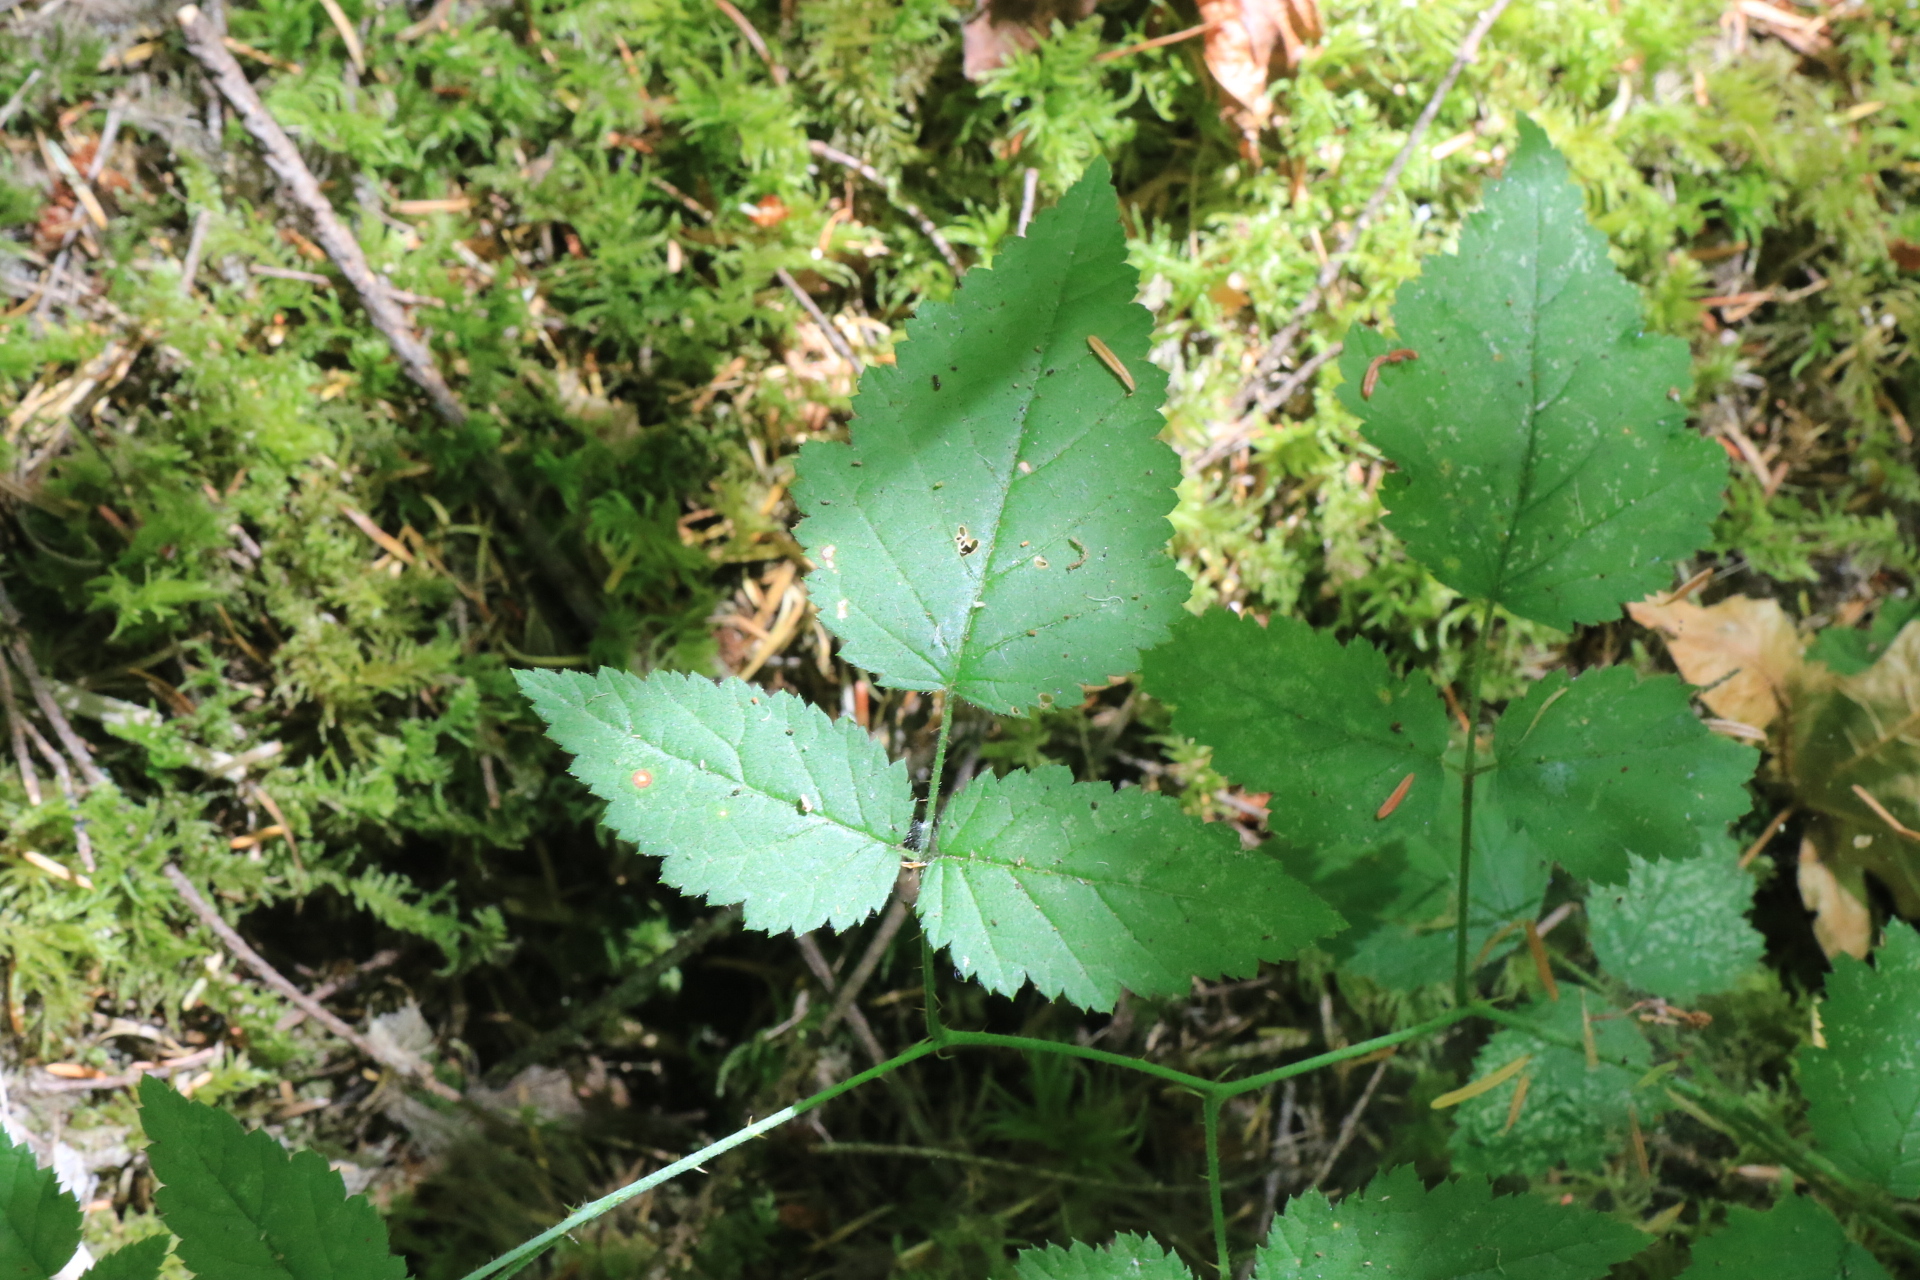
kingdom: Plantae
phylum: Tracheophyta
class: Magnoliopsida
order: Rosales
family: Rosaceae
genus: Rubus
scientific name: Rubus ursinus
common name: Pacific blackberry
